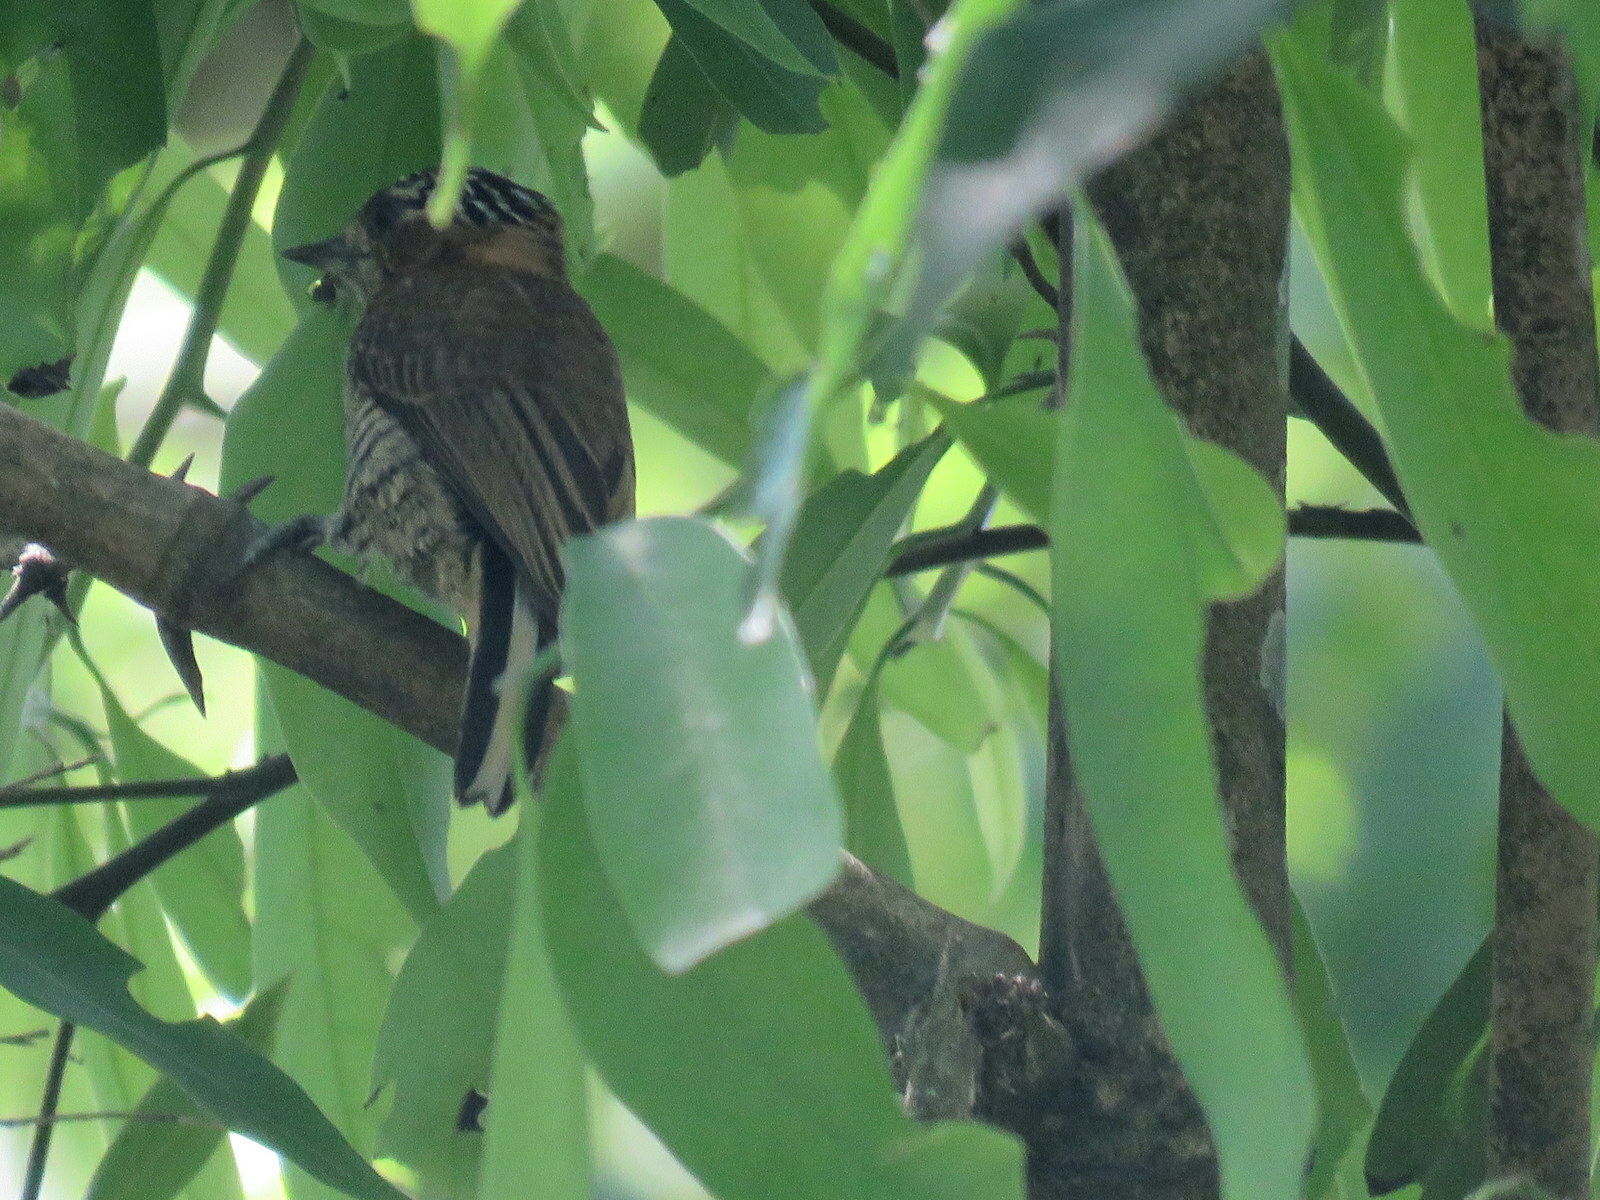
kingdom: Animalia
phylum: Chordata
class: Aves
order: Piciformes
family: Picidae
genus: Picumnus
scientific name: Picumnus temminckii
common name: Ochre-collared piculet
